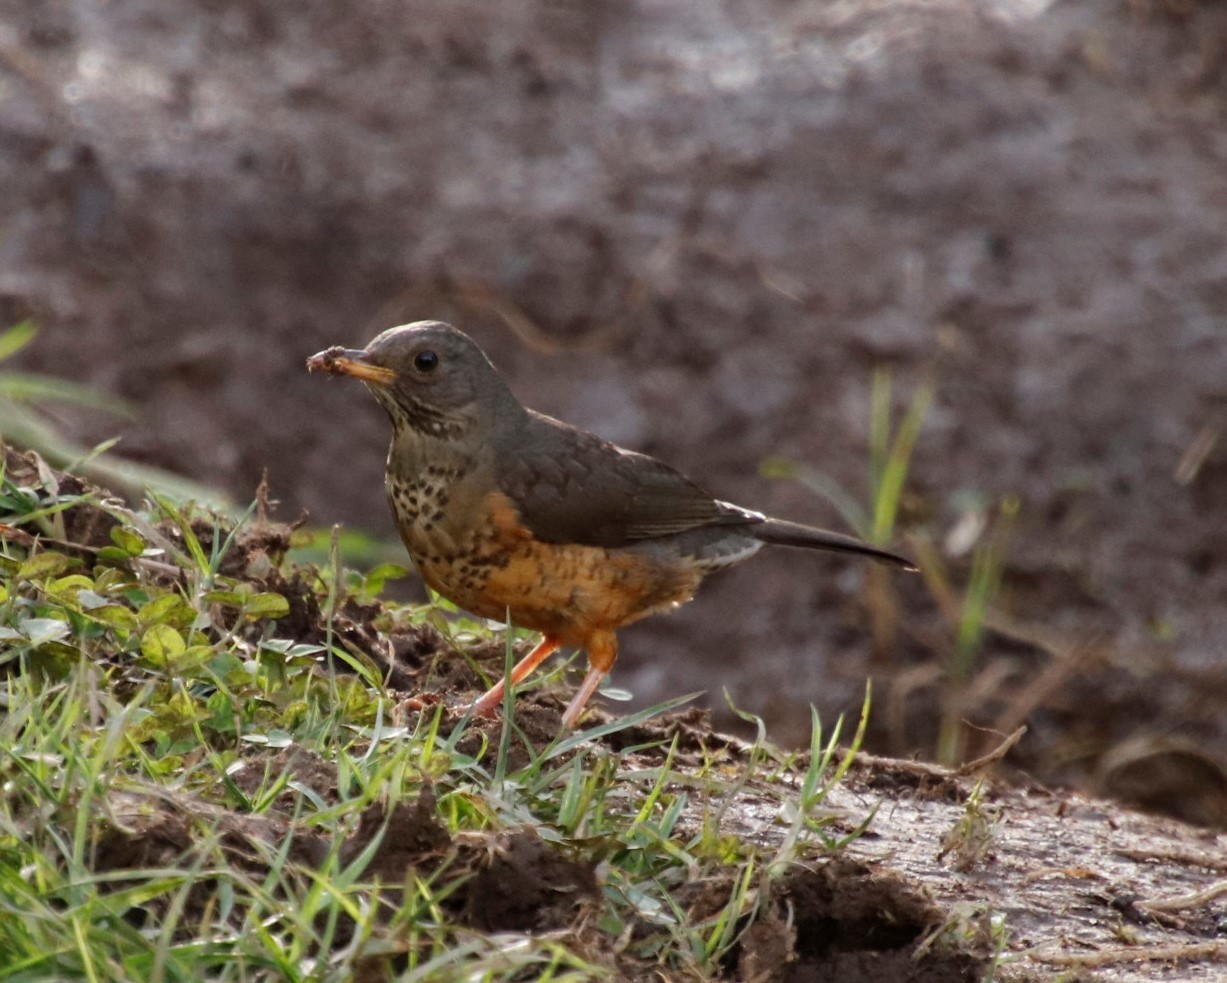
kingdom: Animalia
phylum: Chordata
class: Aves
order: Passeriformes
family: Turdidae
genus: Turdus
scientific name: Turdus olivaceus
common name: Olive thrush
